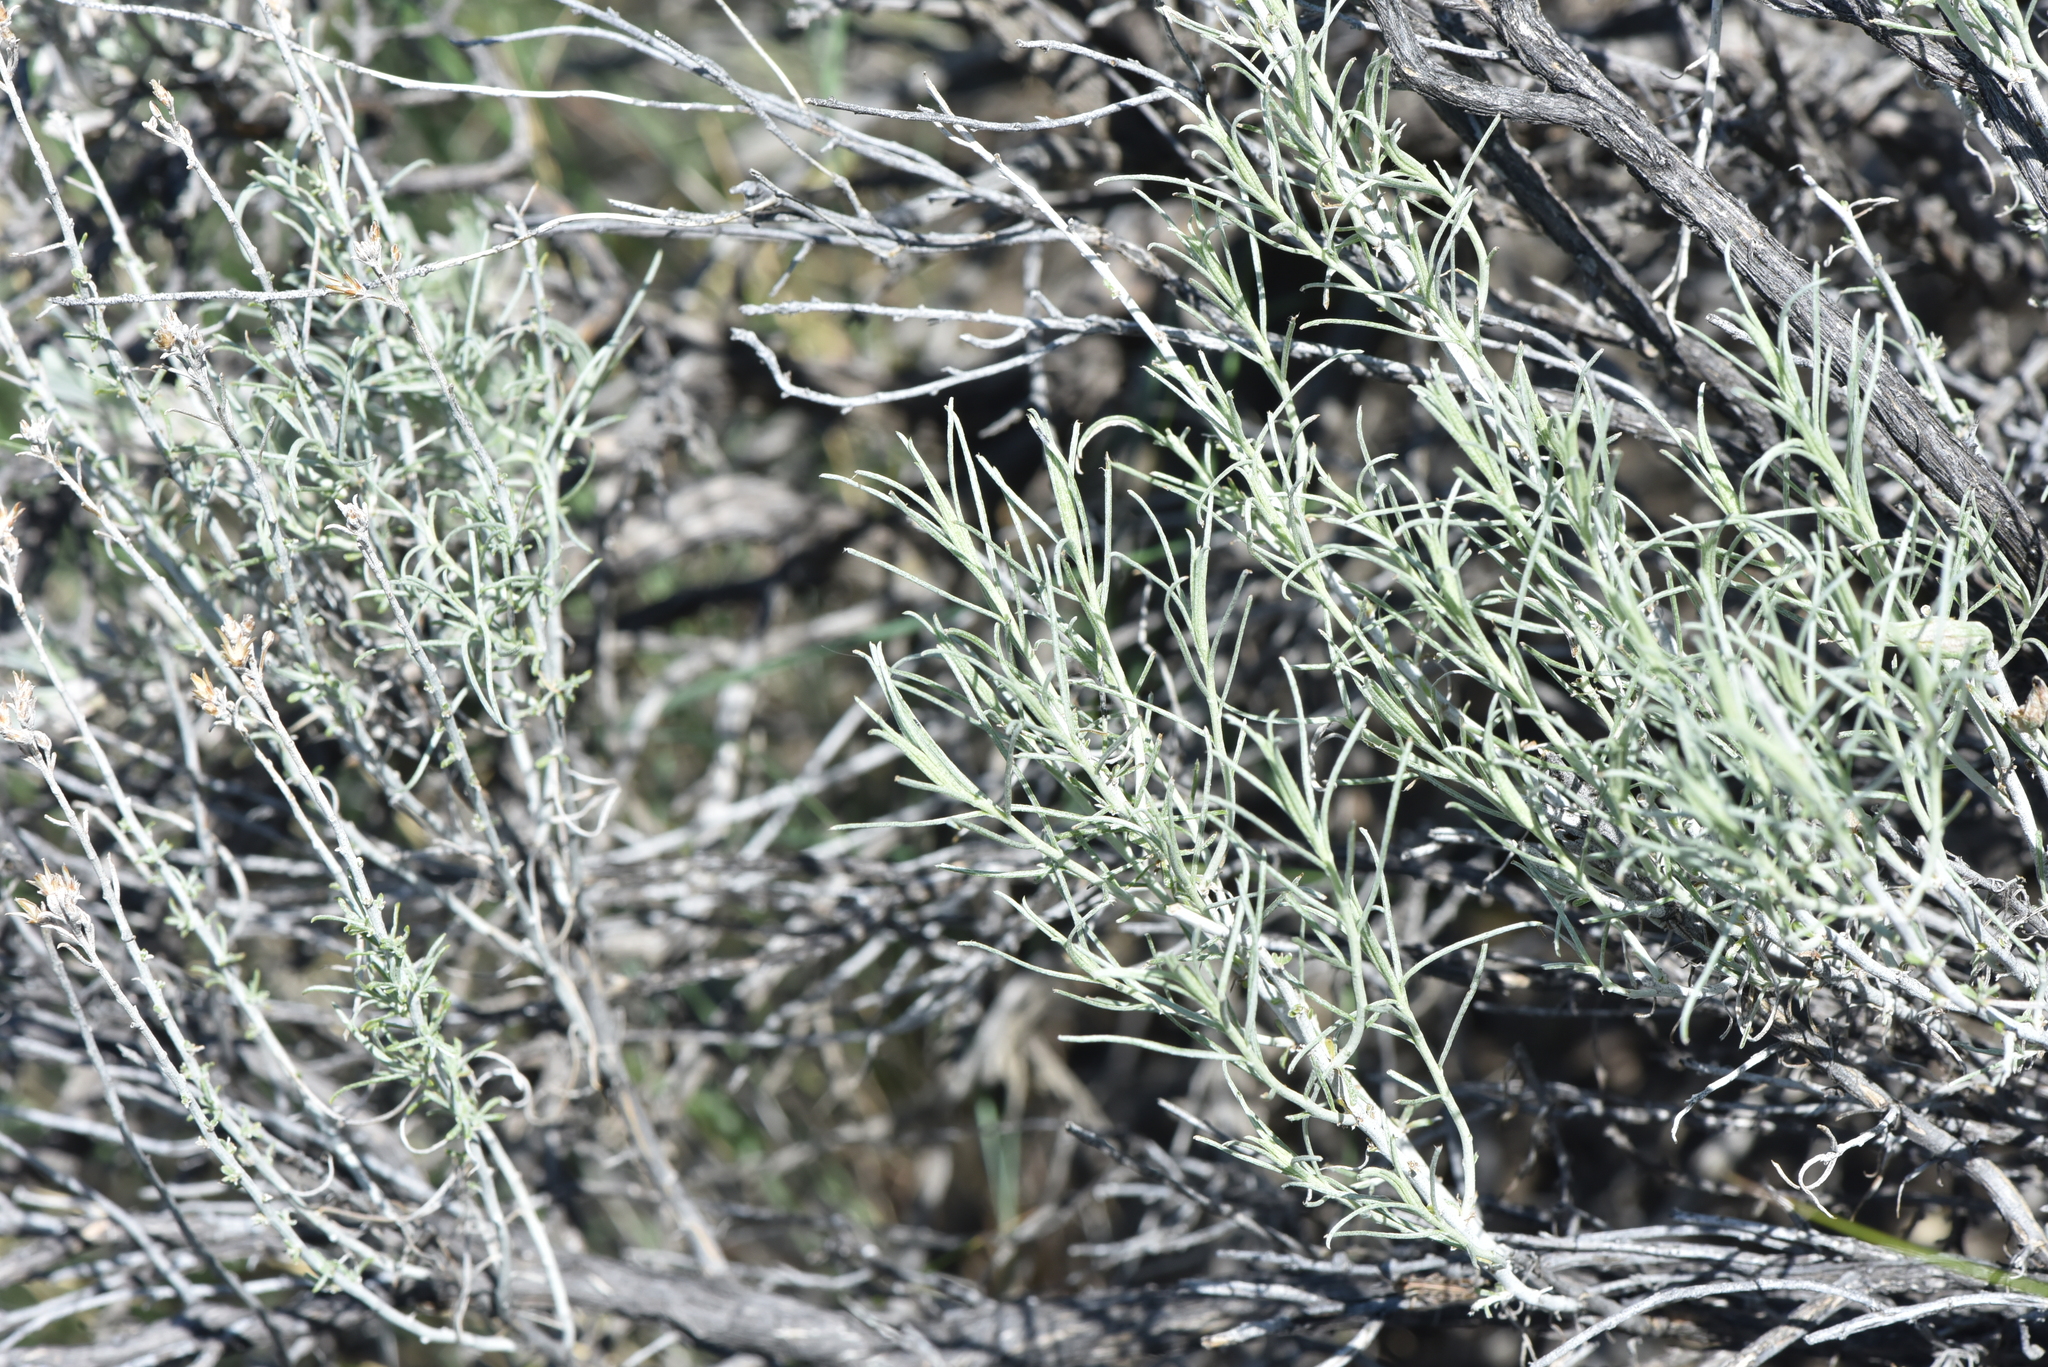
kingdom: Plantae
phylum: Tracheophyta
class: Magnoliopsida
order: Asterales
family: Asteraceae
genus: Ericameria
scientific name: Ericameria nauseosa
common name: Rubber rabbitbrush
